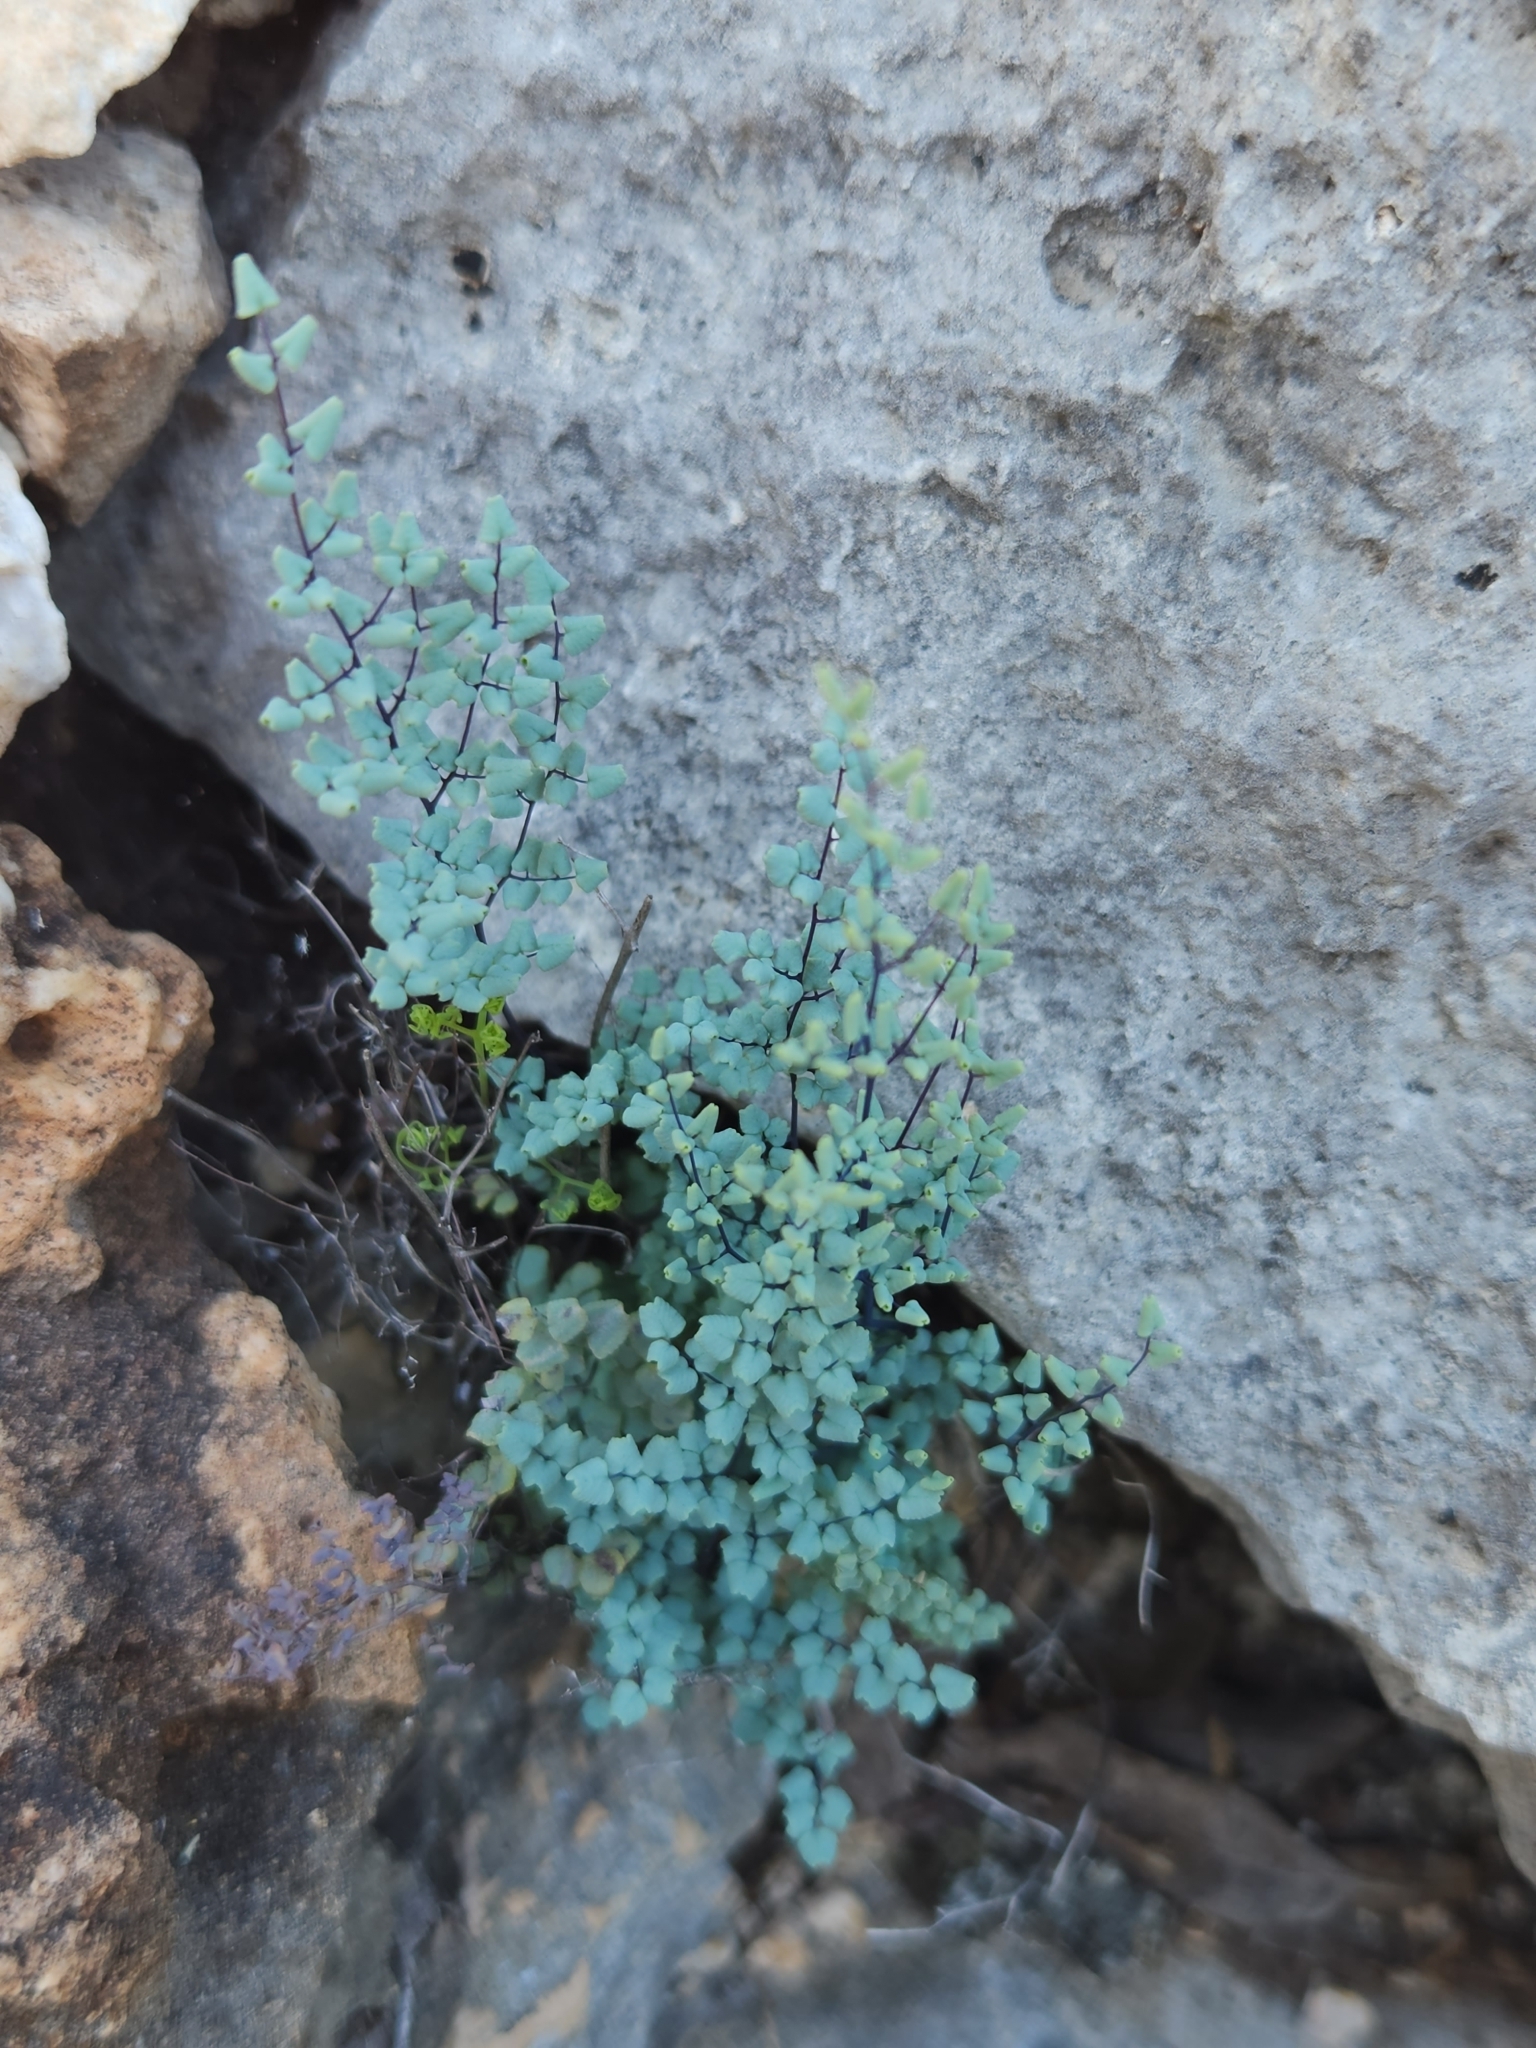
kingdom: Plantae
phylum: Tracheophyta
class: Polypodiopsida
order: Polypodiales
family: Pteridaceae
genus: Argyrochosma
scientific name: Argyrochosma microphylla
